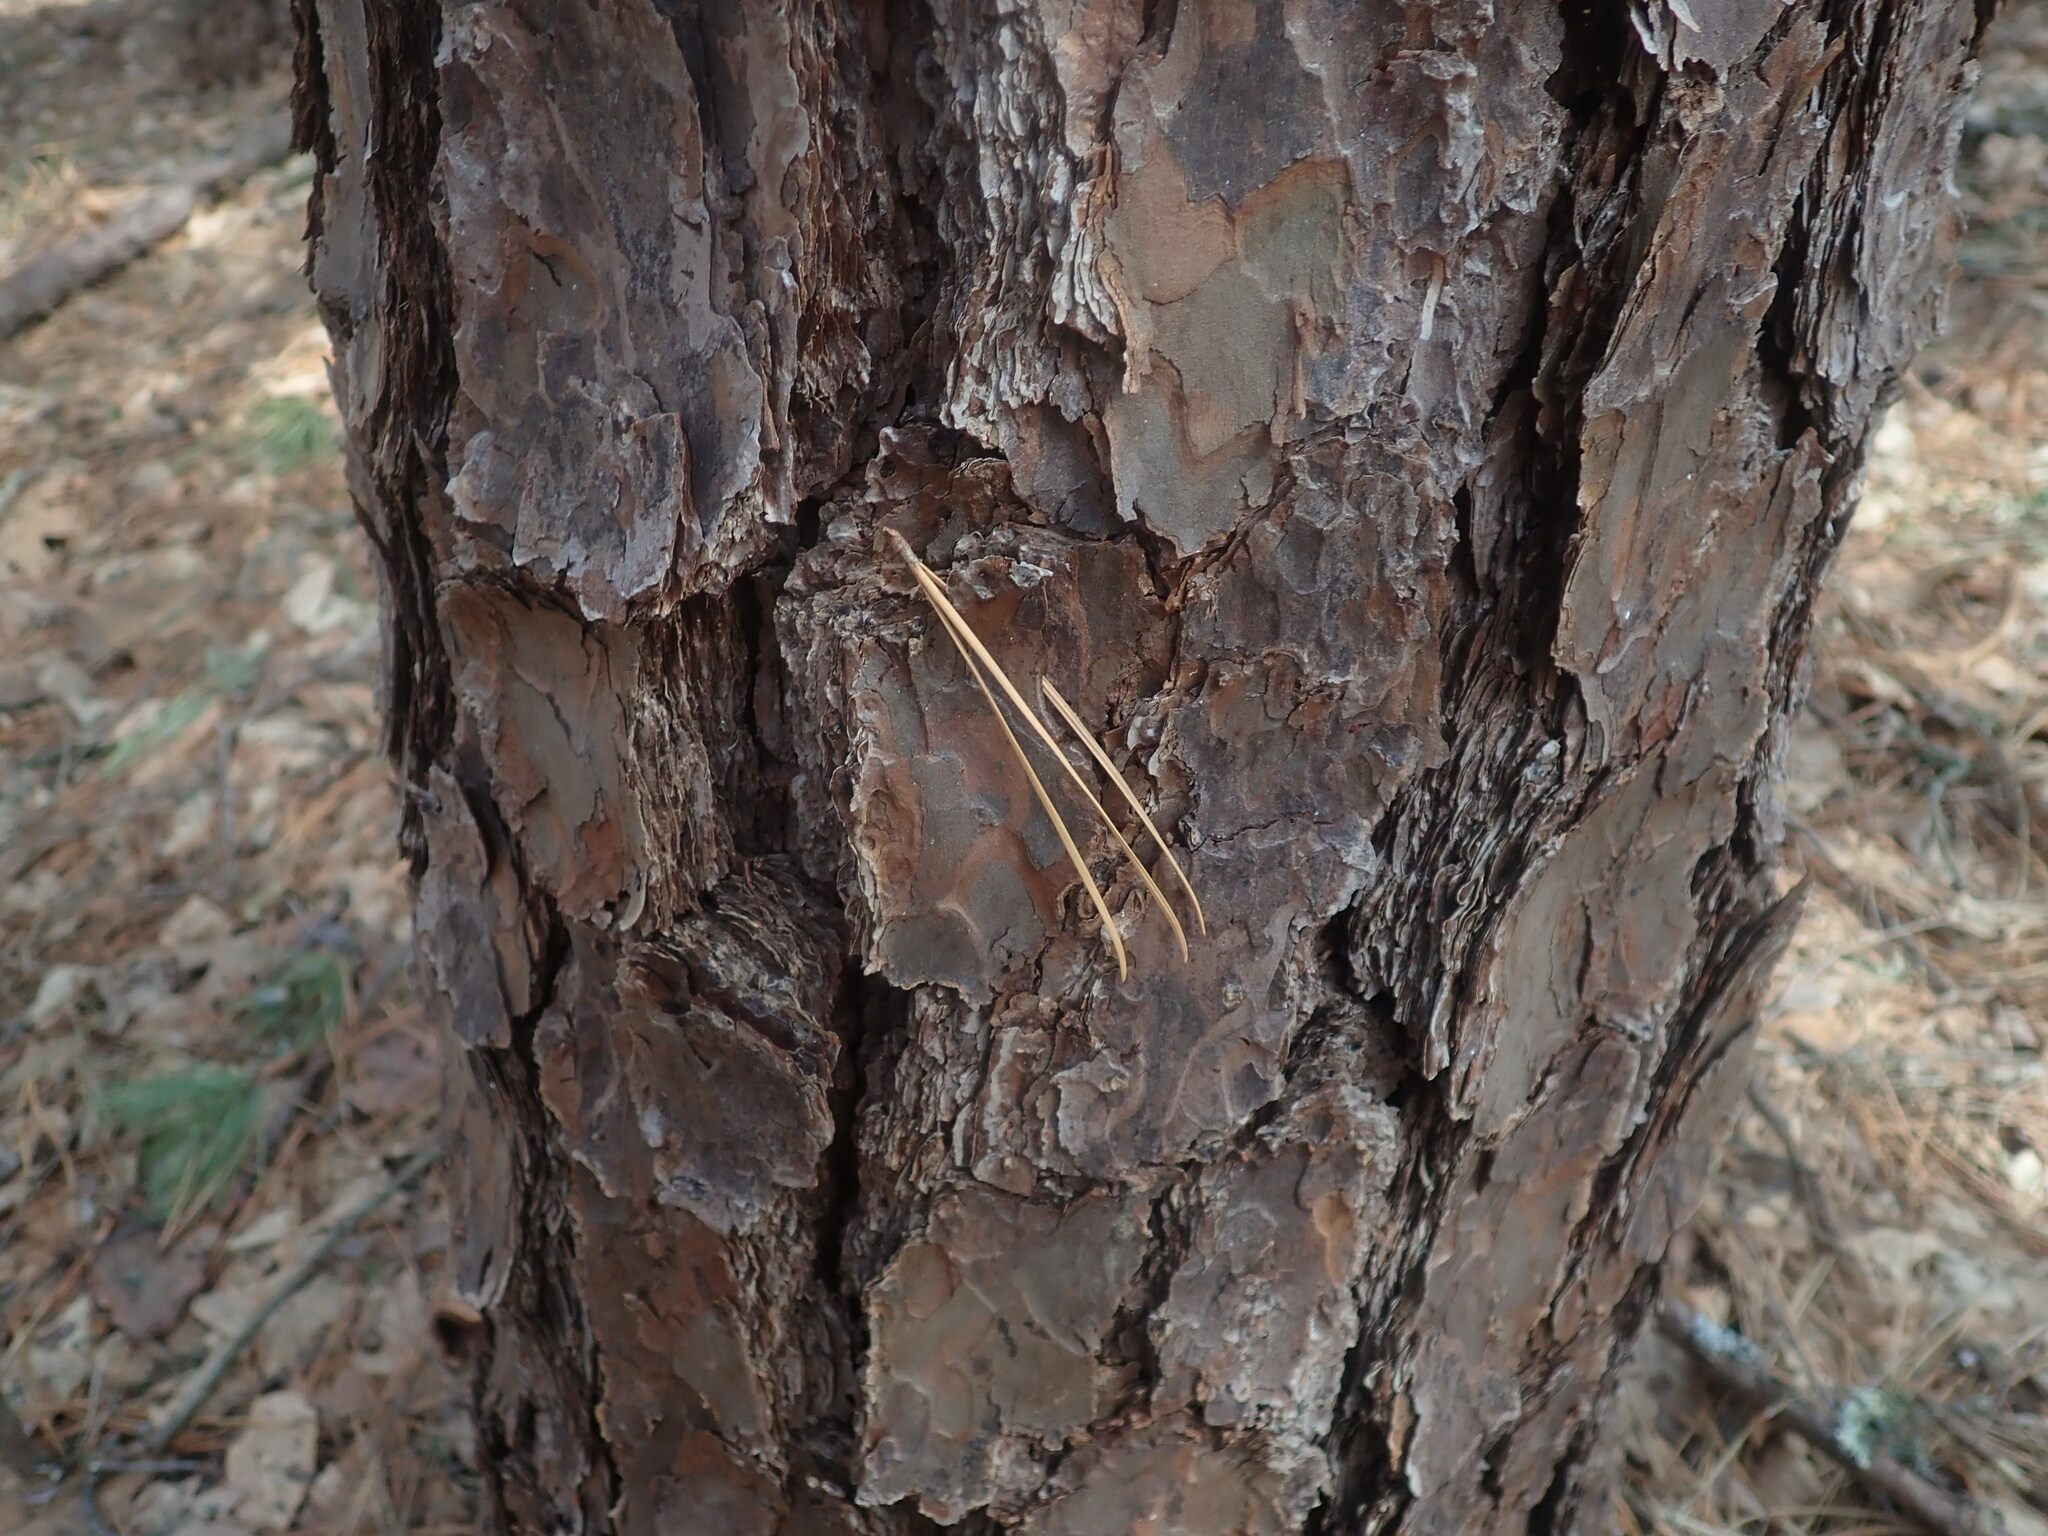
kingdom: Plantae
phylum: Tracheophyta
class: Pinopsida
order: Pinales
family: Pinaceae
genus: Pinus
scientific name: Pinus rigida
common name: Pitch pine
